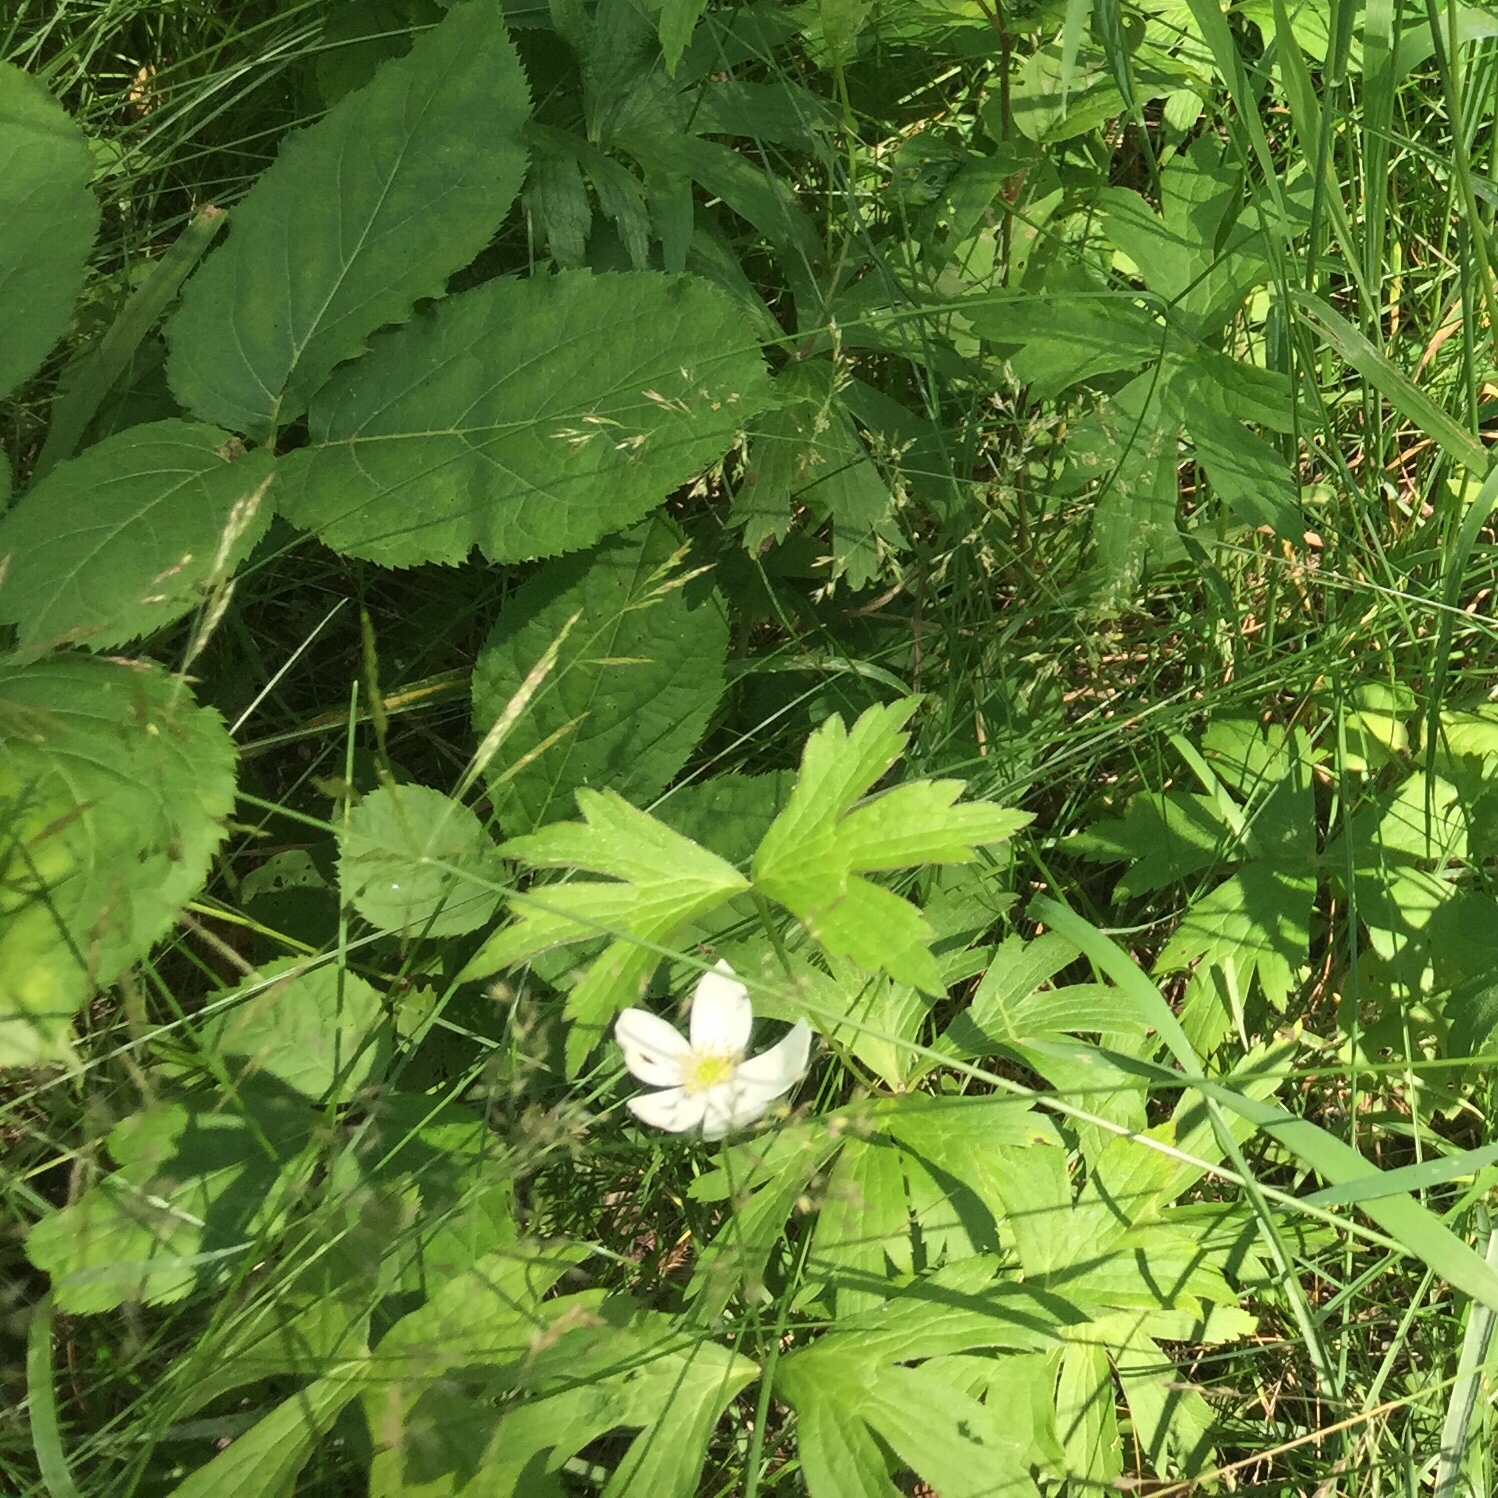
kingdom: Plantae
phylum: Tracheophyta
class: Magnoliopsida
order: Ranunculales
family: Ranunculaceae
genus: Anemonastrum
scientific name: Anemonastrum canadense
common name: Canada anemone
